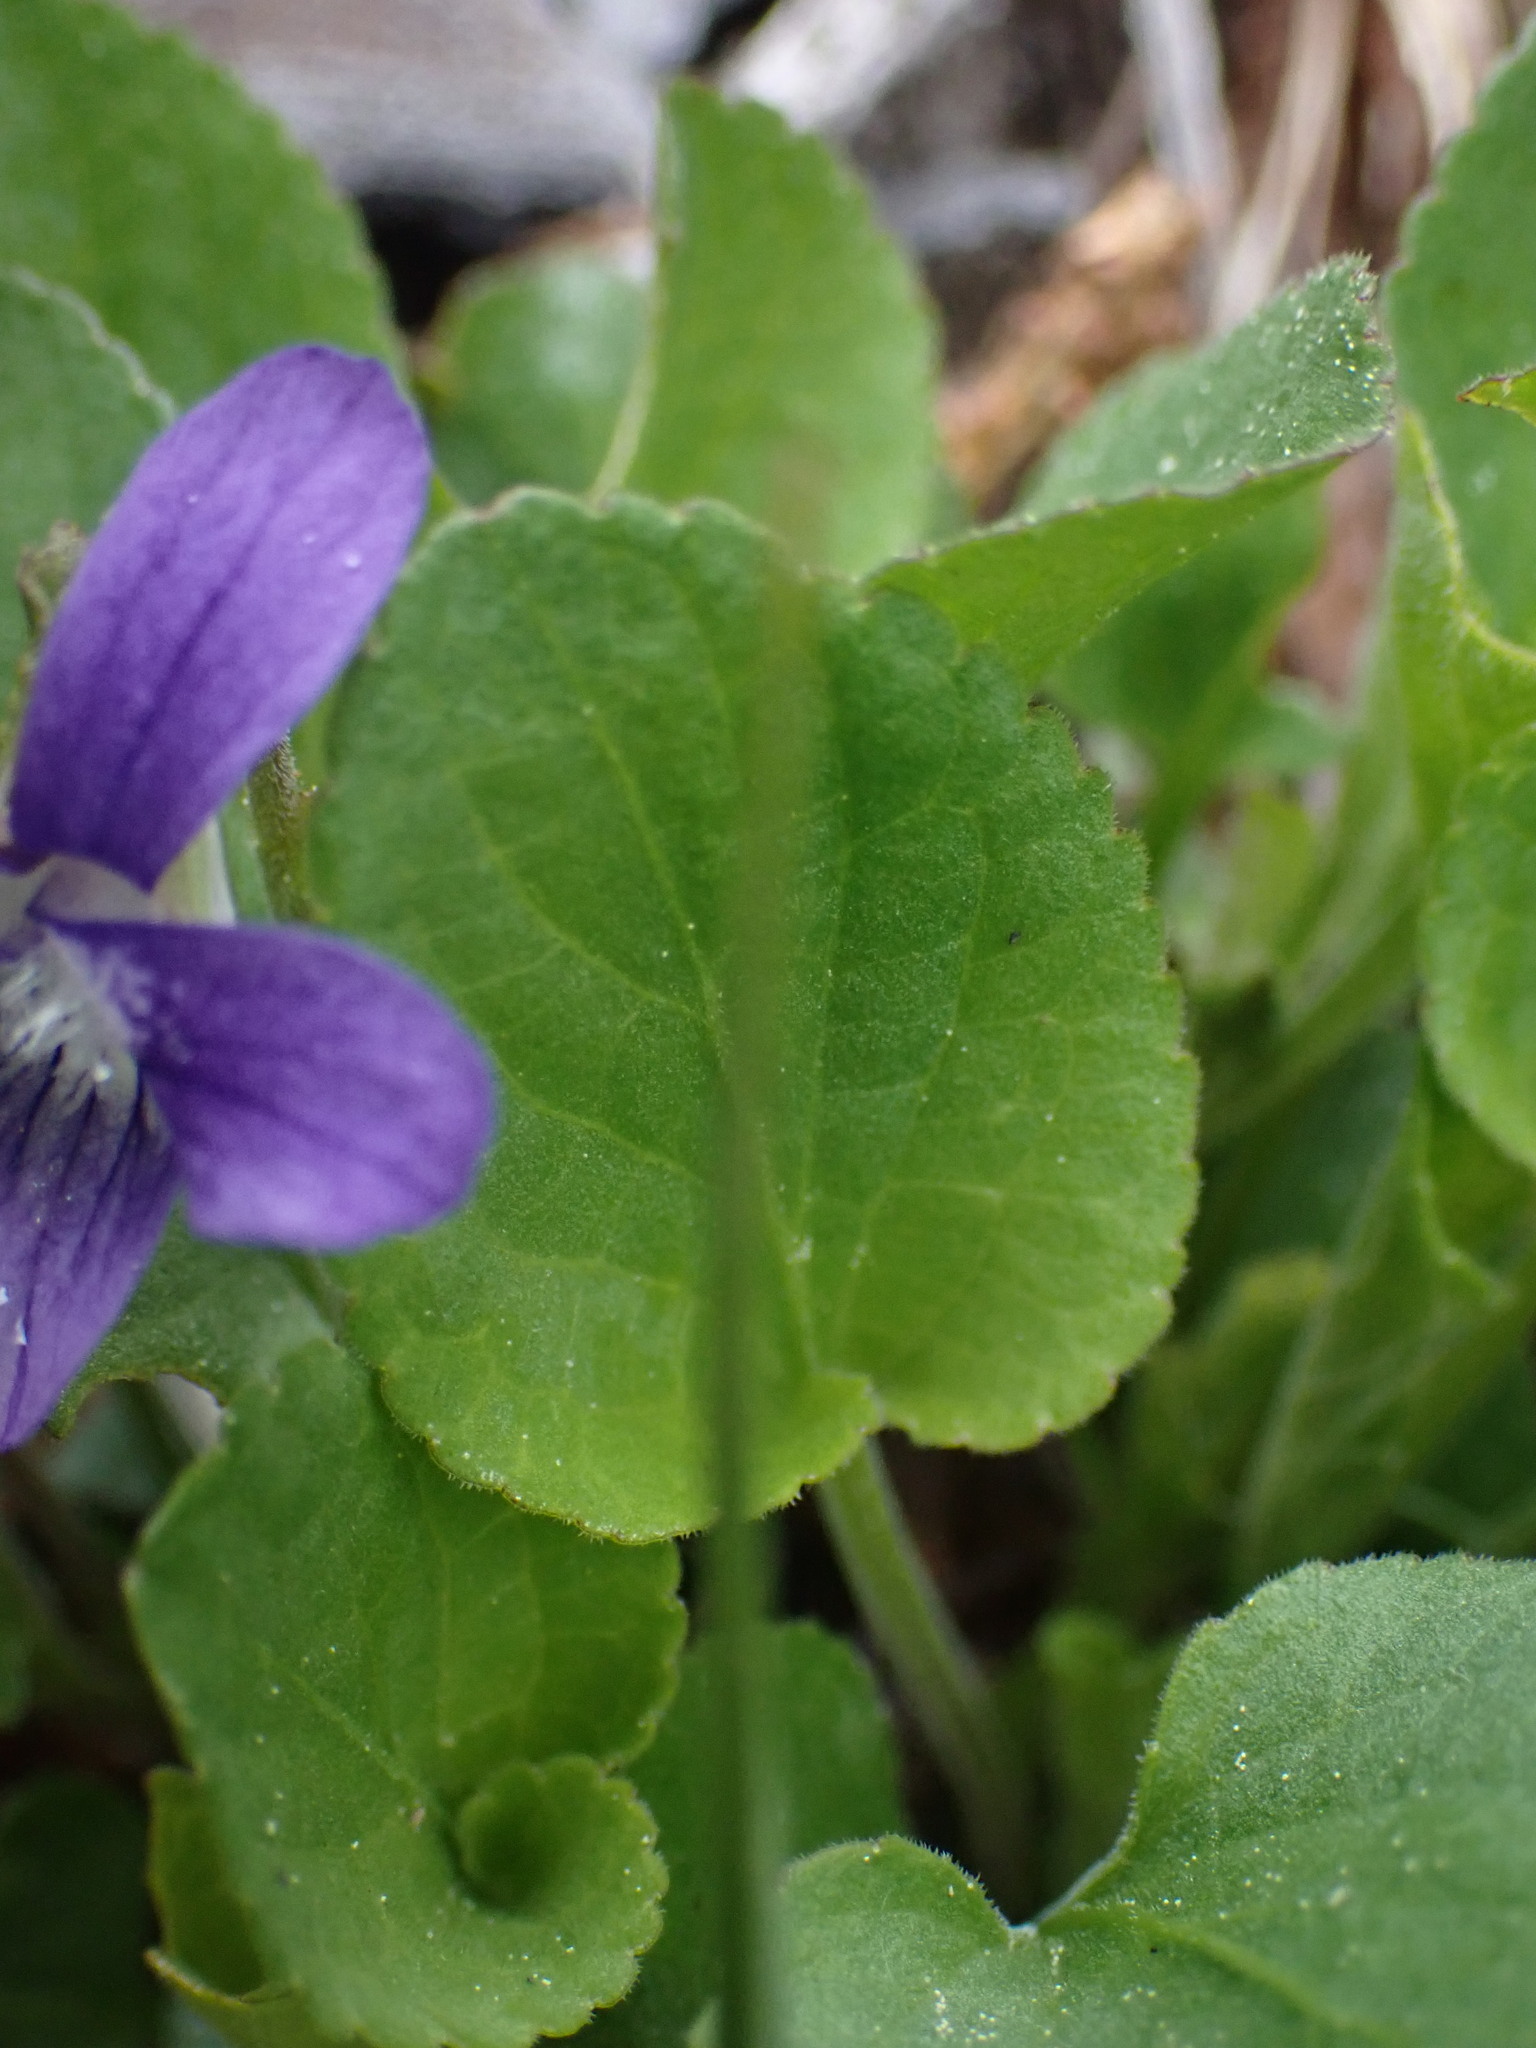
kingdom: Plantae
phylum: Tracheophyta
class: Magnoliopsida
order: Malpighiales
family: Violaceae
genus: Viola
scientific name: Viola adunca
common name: Sand violet
